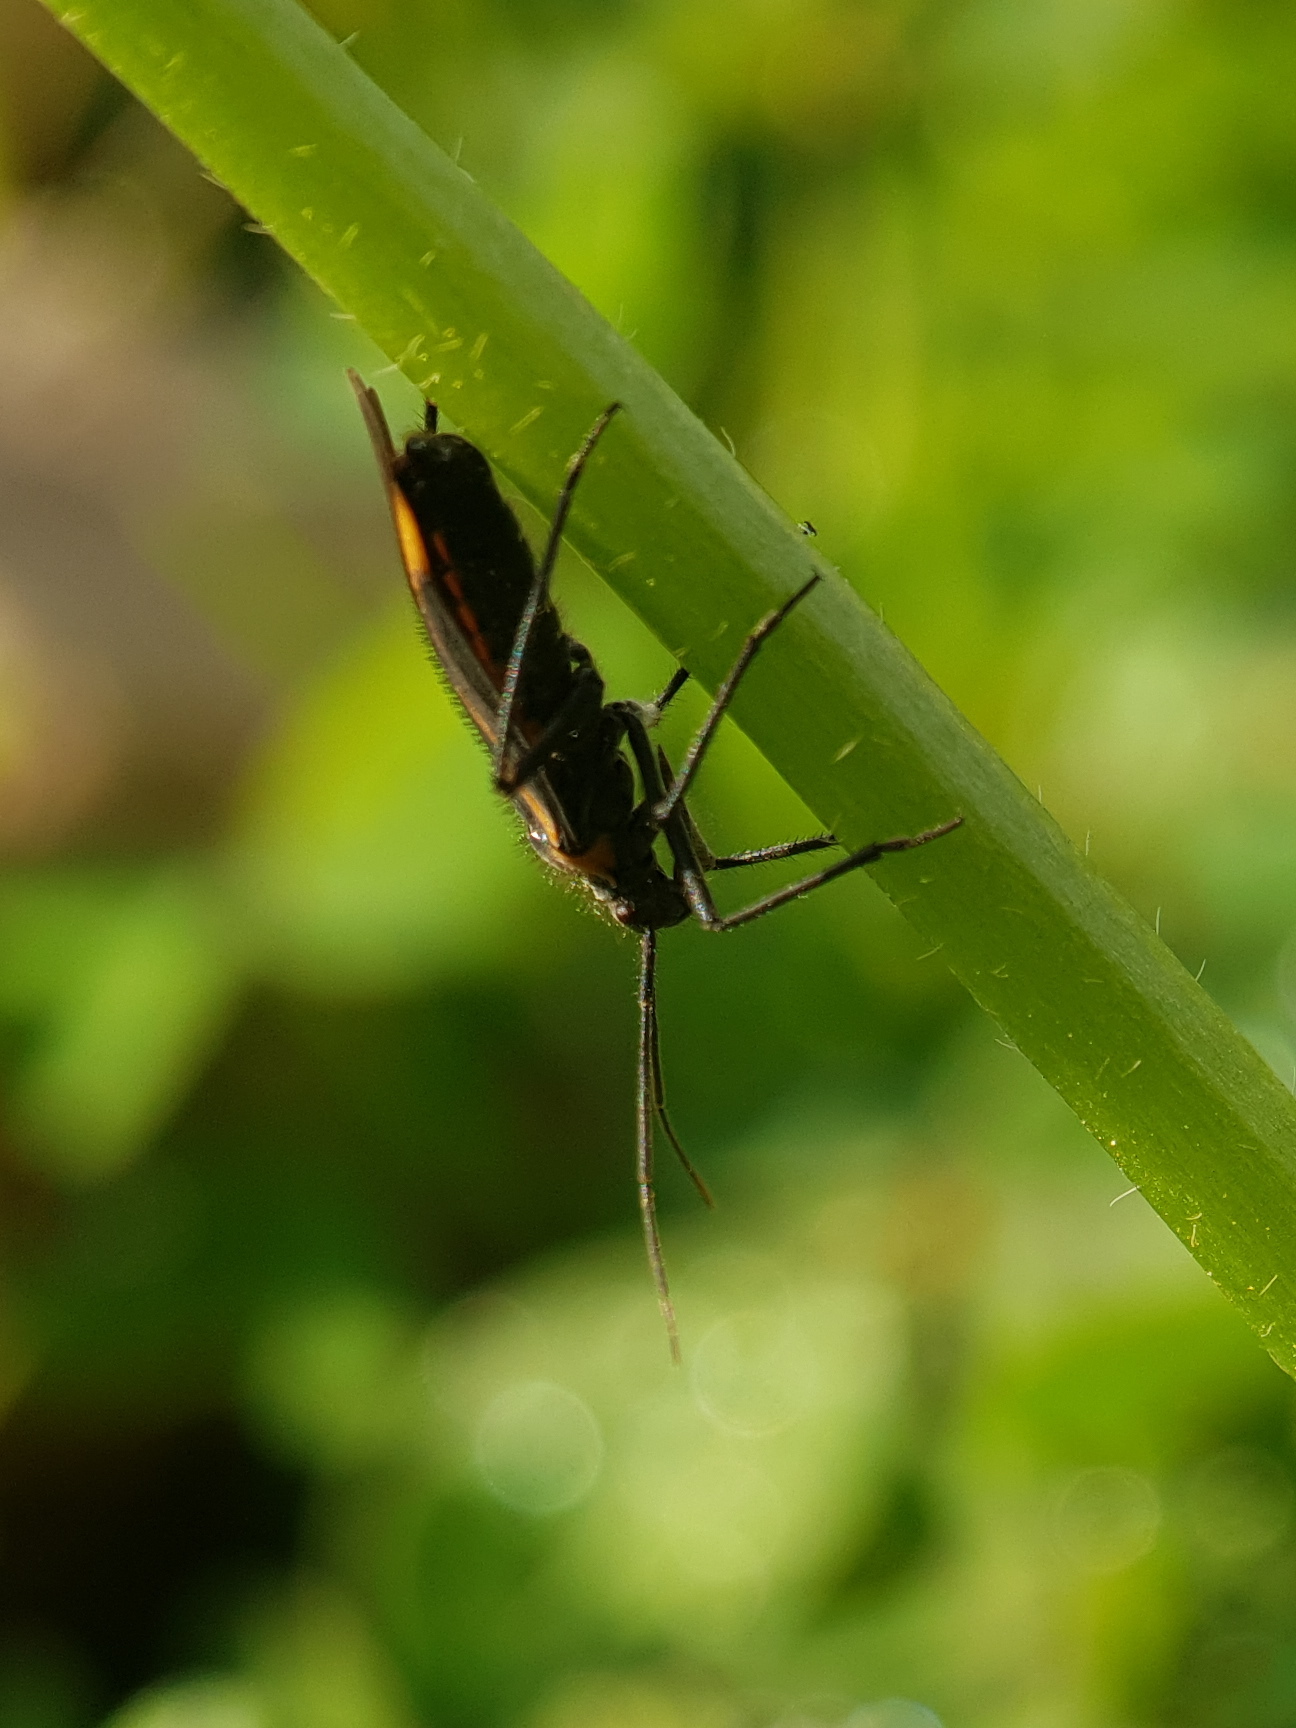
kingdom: Animalia
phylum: Arthropoda
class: Insecta
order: Hemiptera
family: Miridae
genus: Horistus
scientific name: Horistus turcomanus
